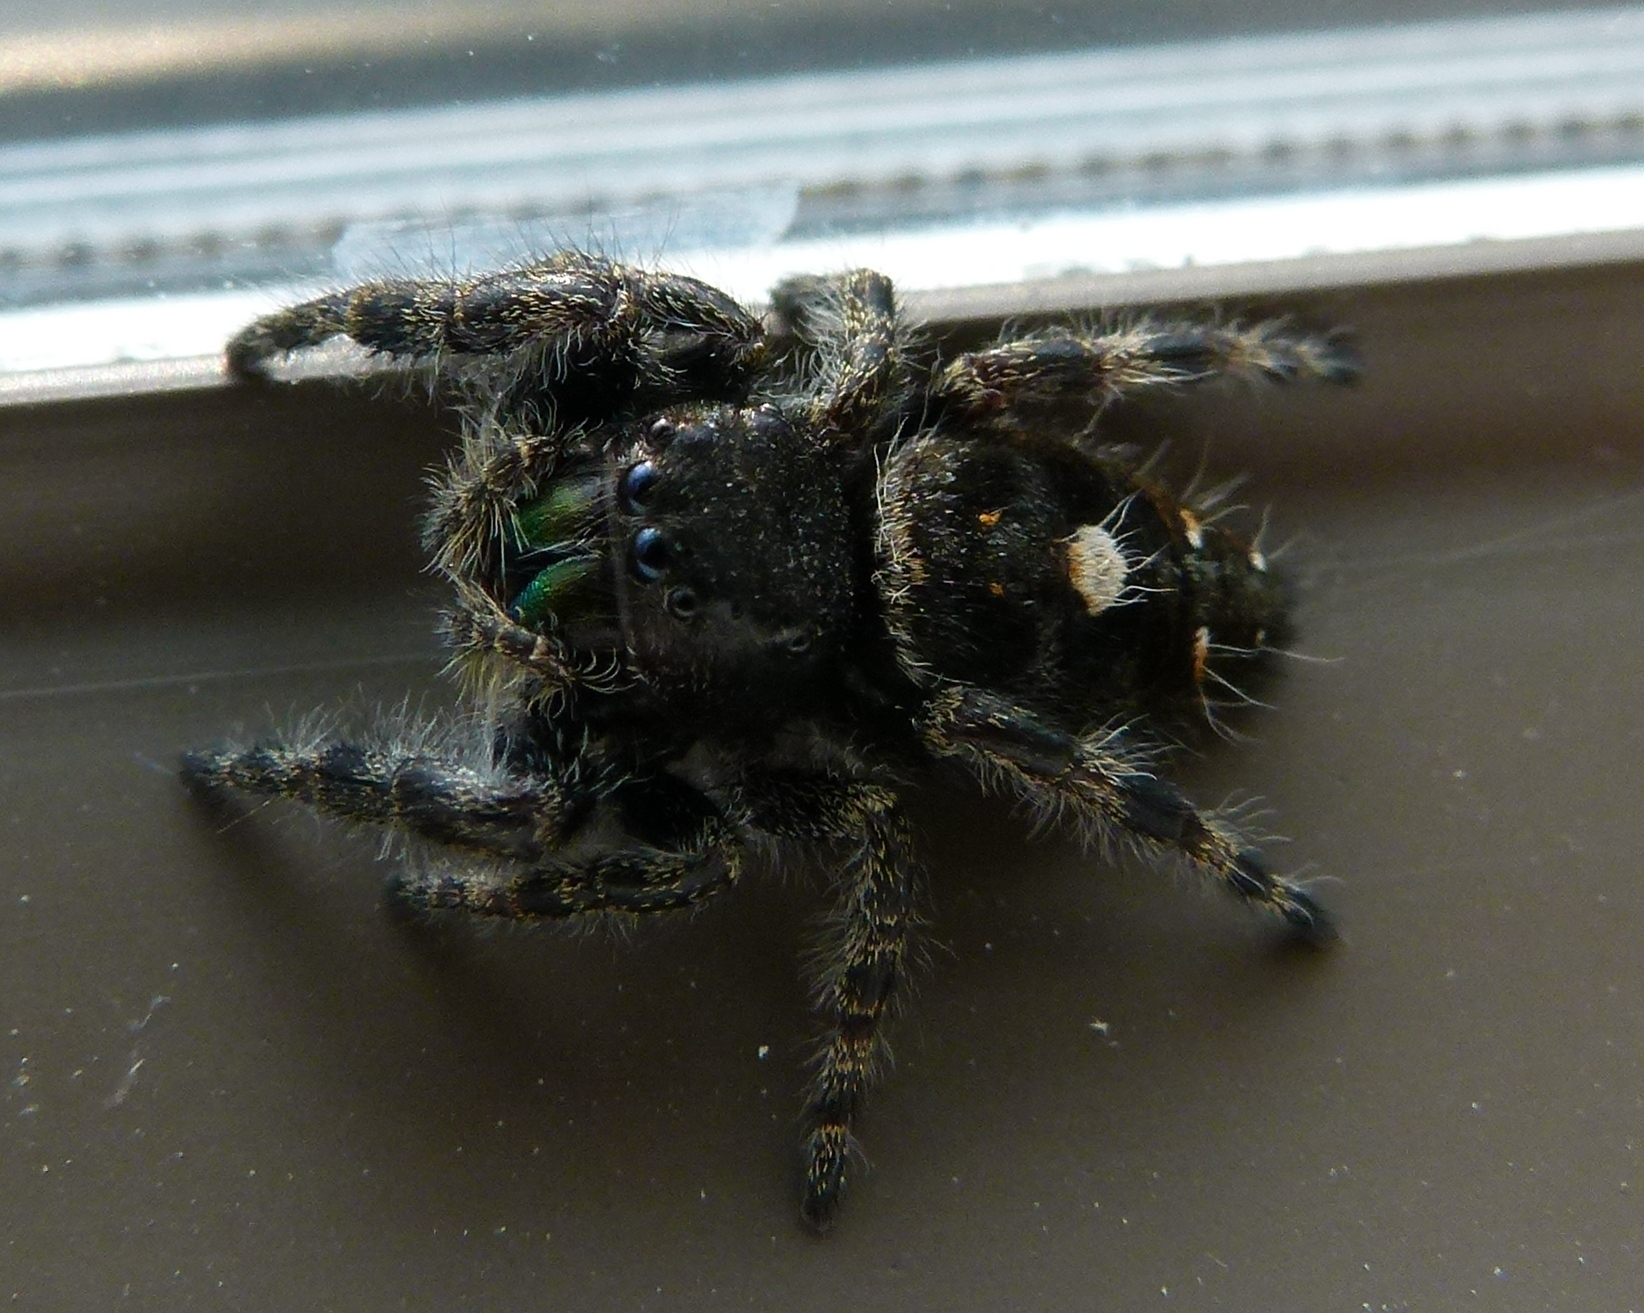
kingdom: Animalia
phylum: Arthropoda
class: Arachnida
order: Araneae
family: Salticidae
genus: Phidippus
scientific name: Phidippus audax
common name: Bold jumper
